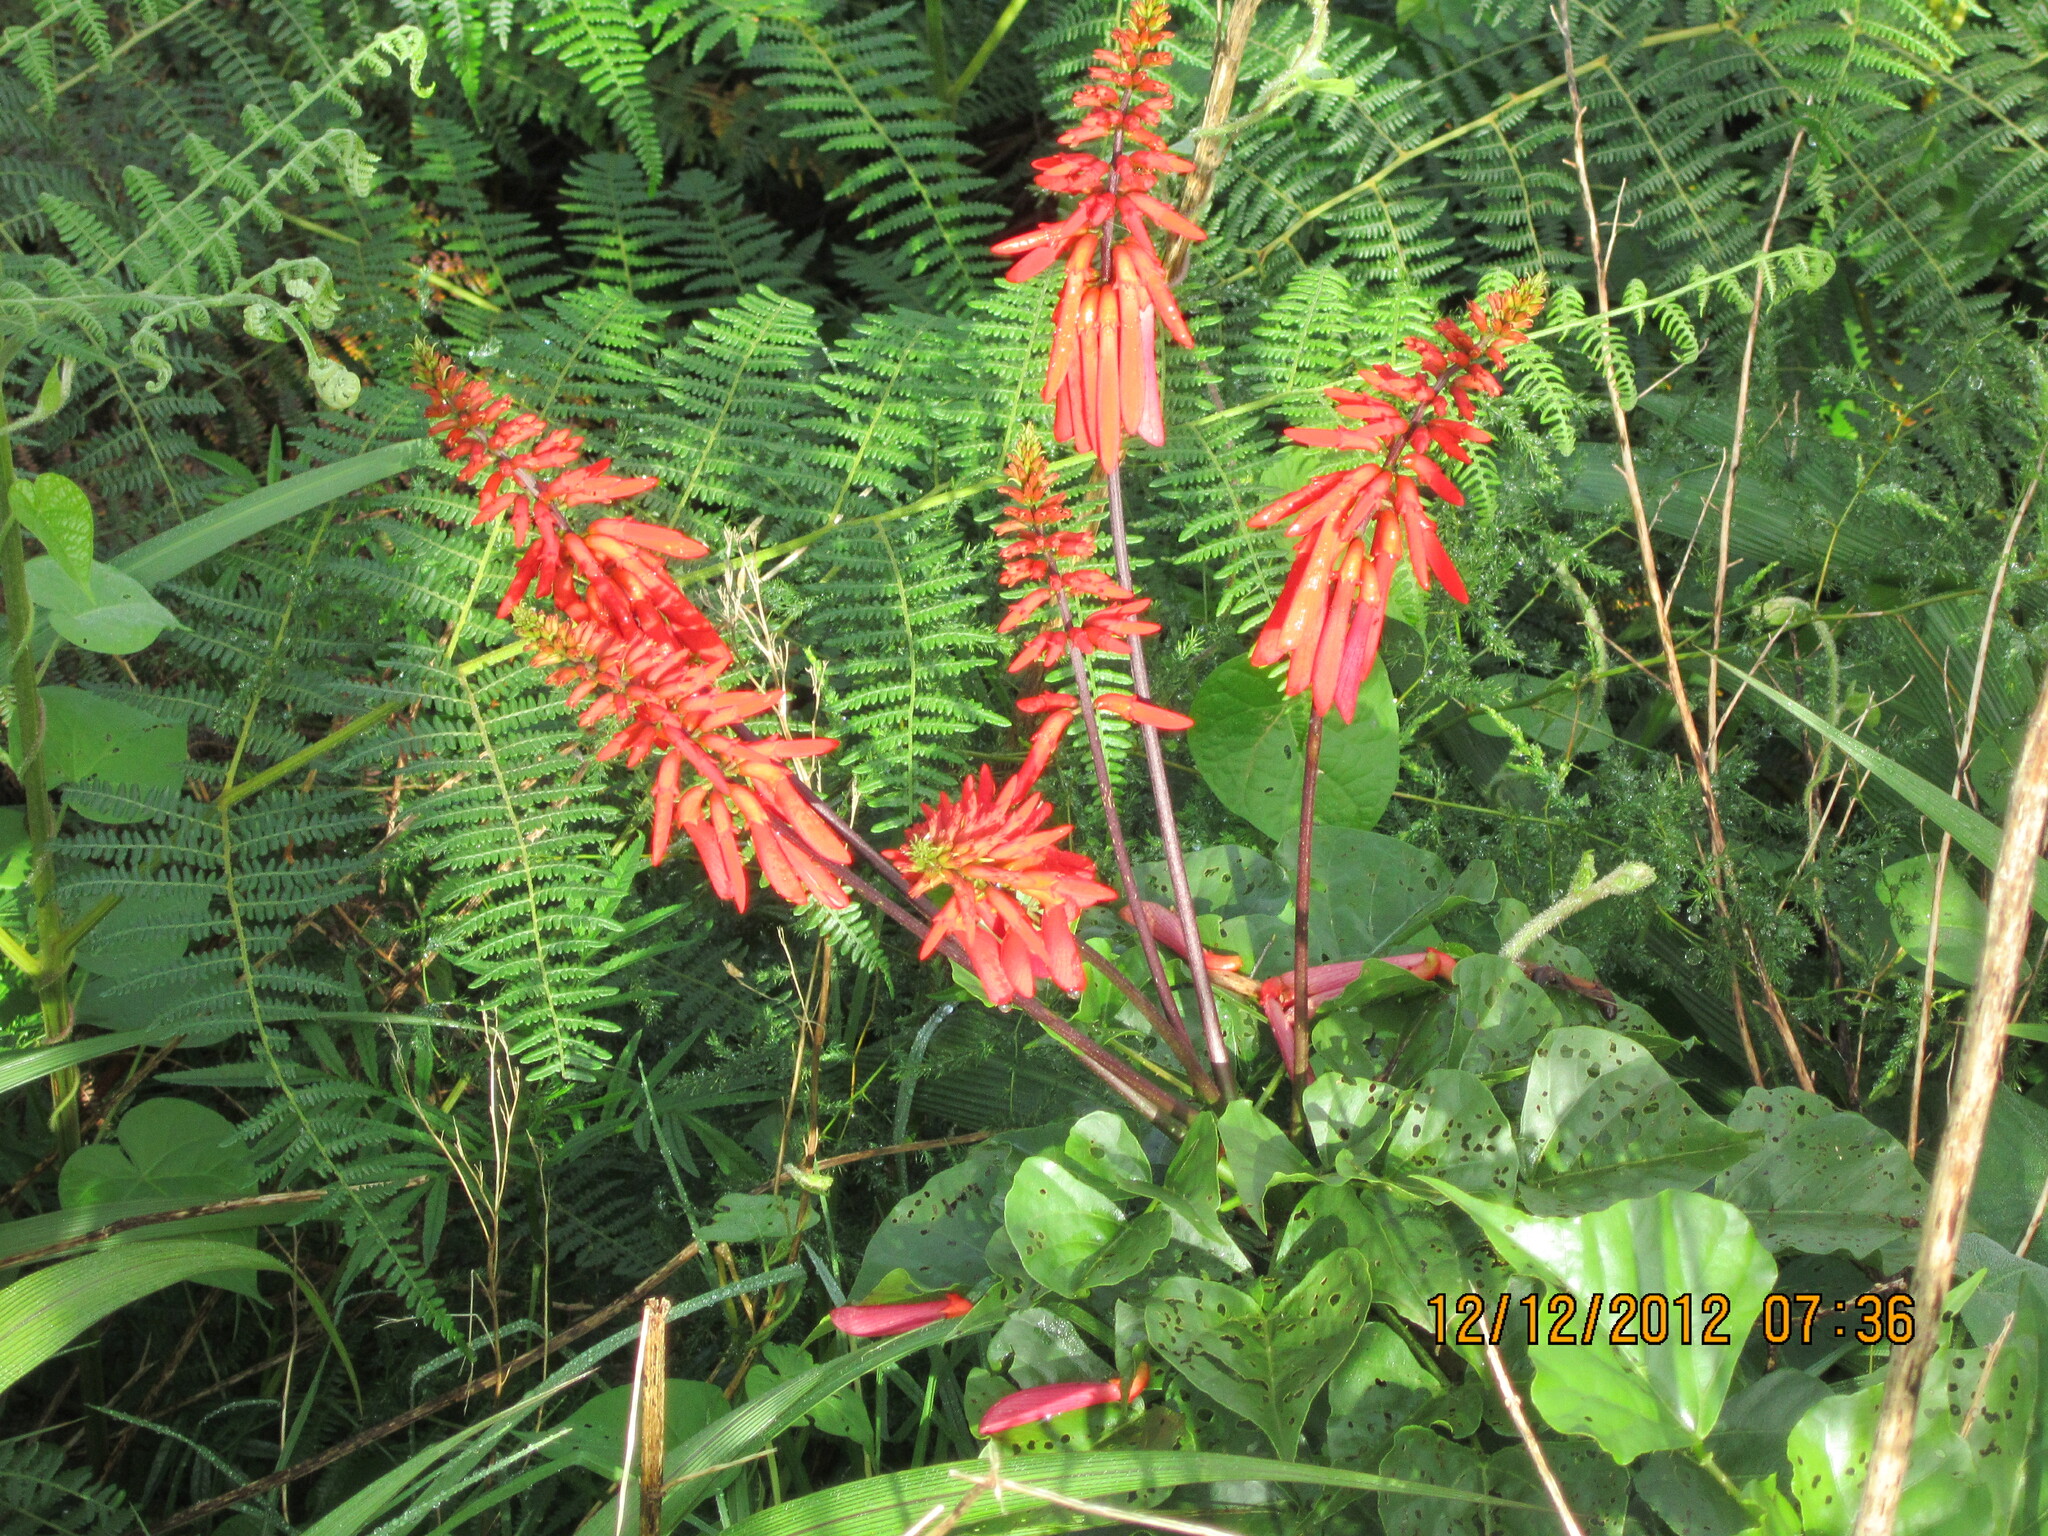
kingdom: Plantae
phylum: Tracheophyta
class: Magnoliopsida
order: Fabales
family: Fabaceae
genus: Erythrina
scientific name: Erythrina humeana
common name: Dwarf coral tree
